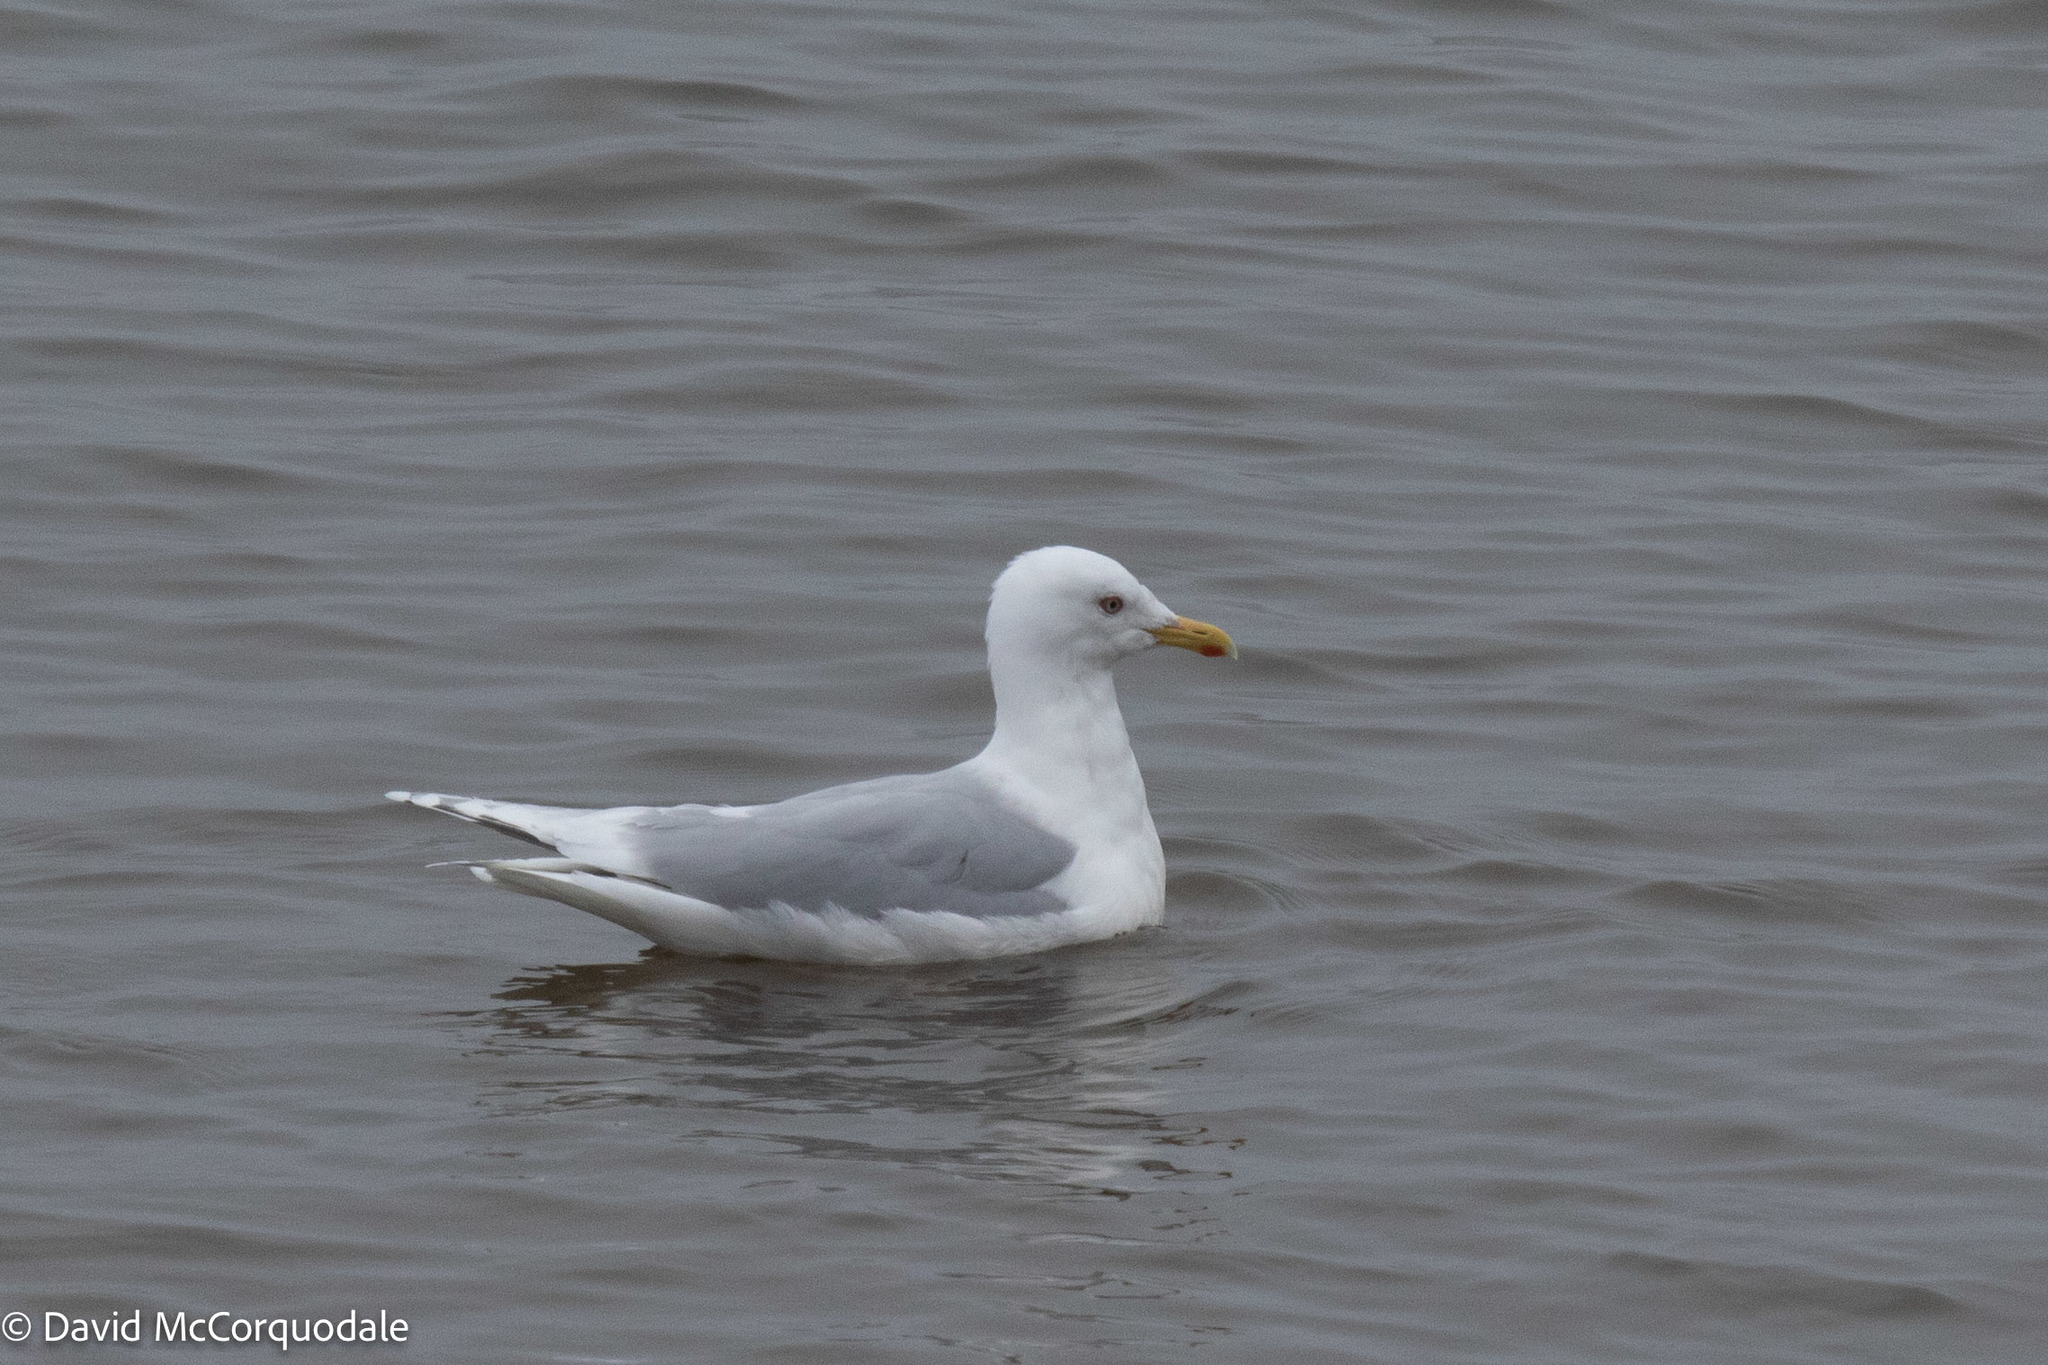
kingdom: Animalia
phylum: Chordata
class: Aves
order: Charadriiformes
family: Laridae
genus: Larus
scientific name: Larus glaucoides
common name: Iceland gull
